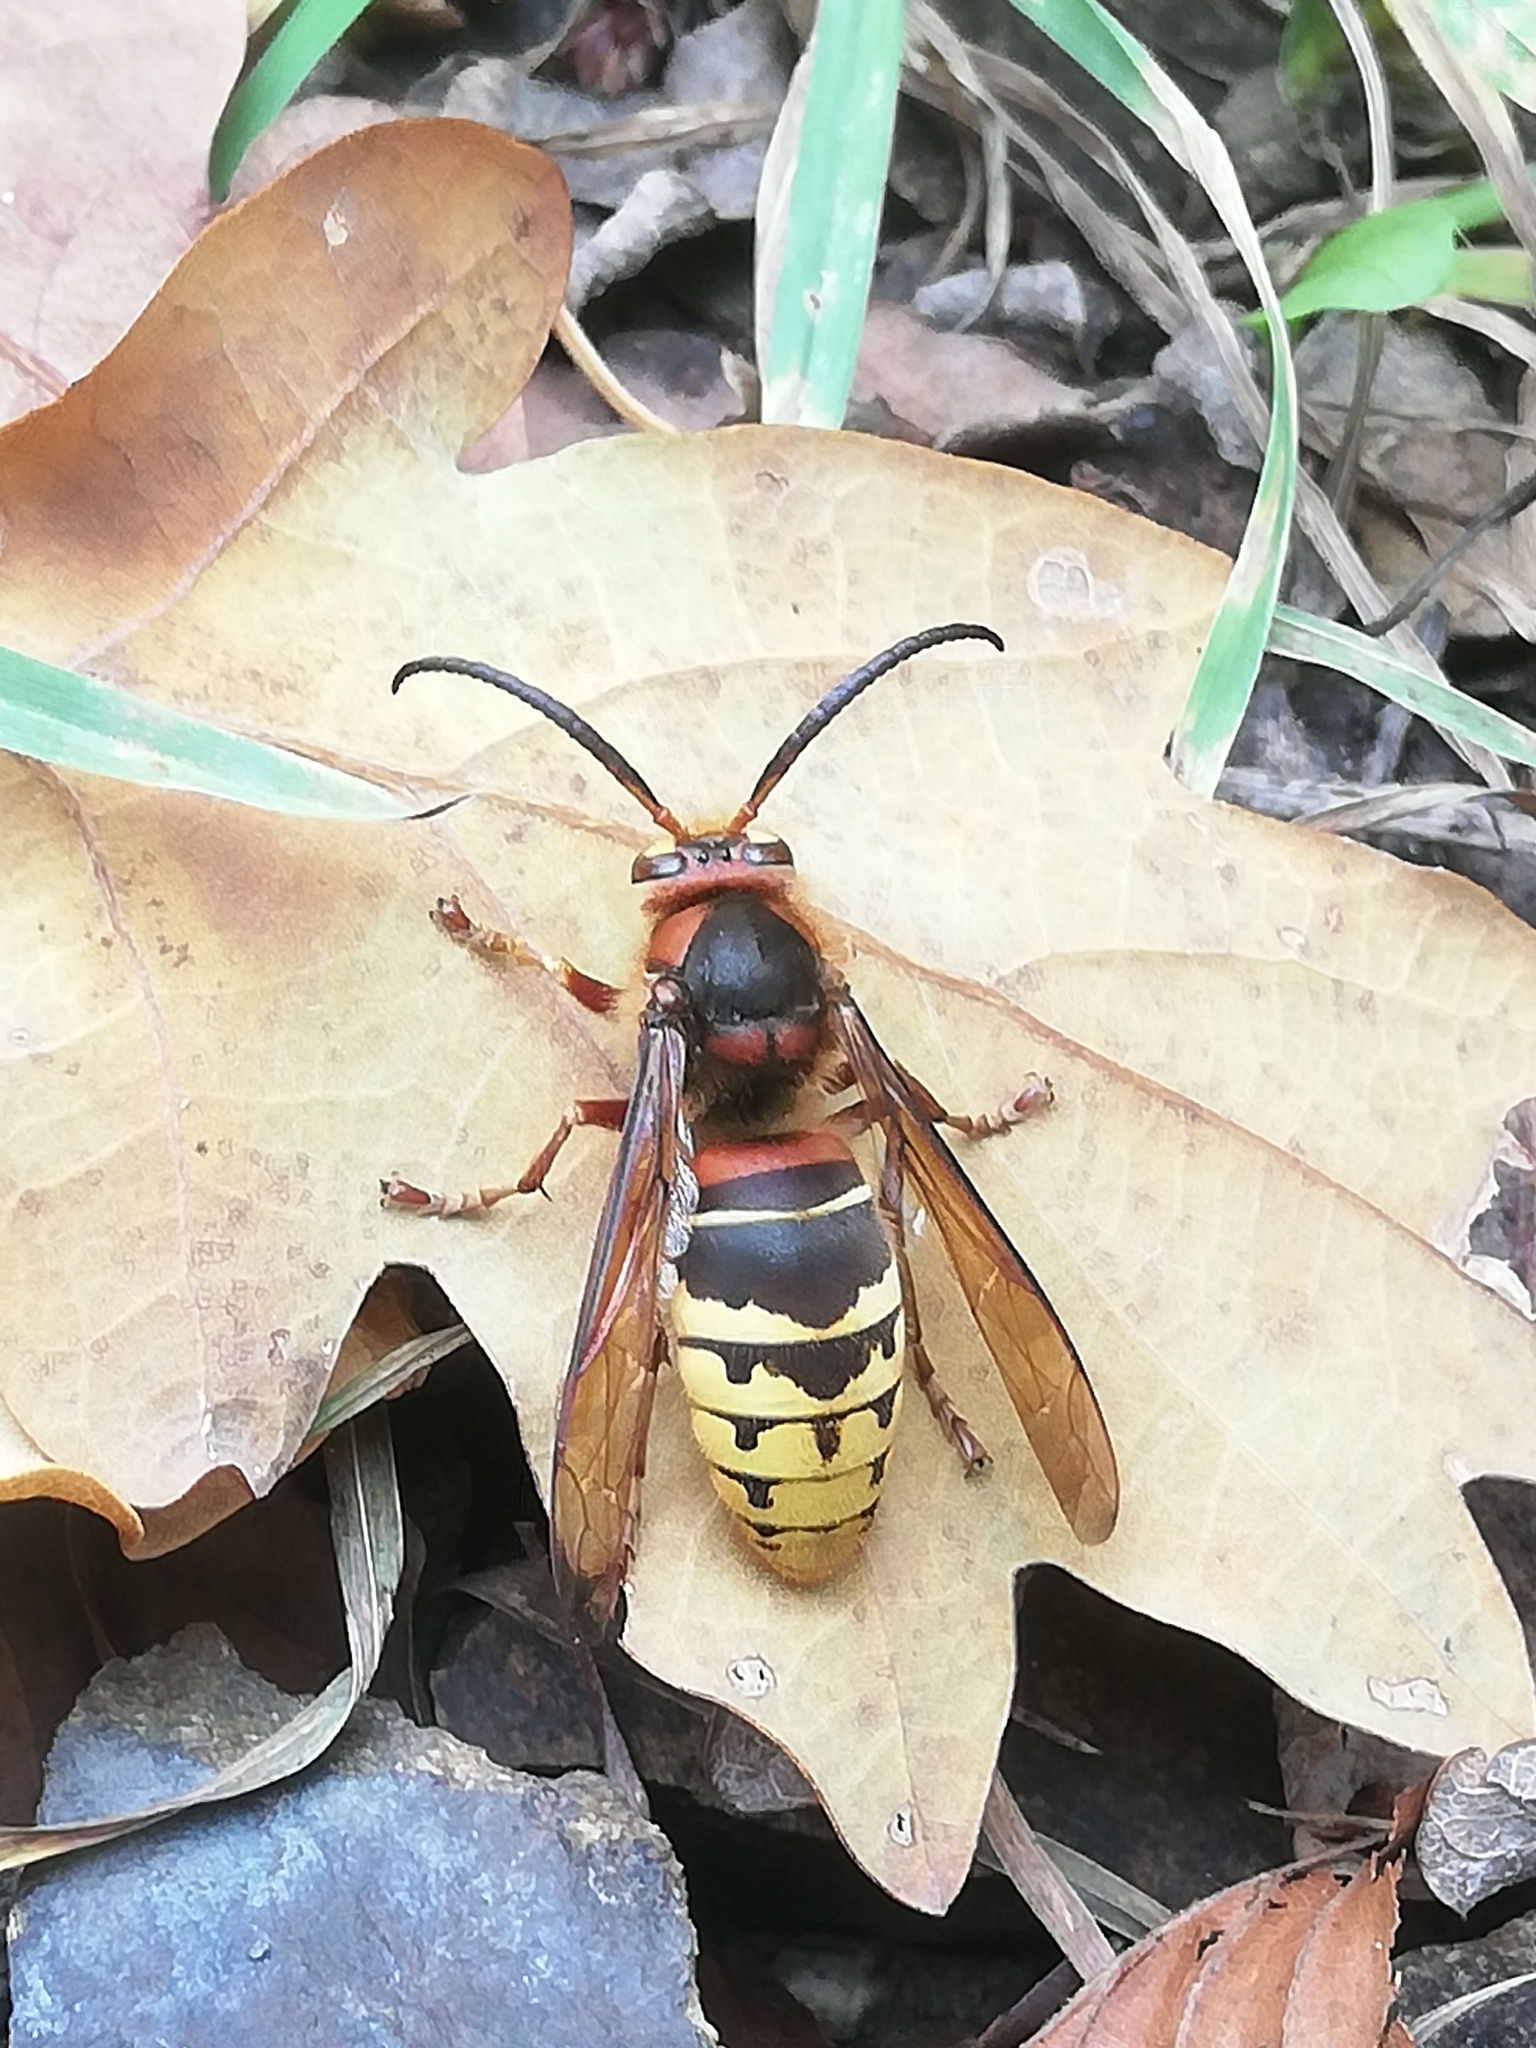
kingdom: Animalia
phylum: Arthropoda
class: Insecta
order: Hymenoptera
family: Vespidae
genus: Vespa
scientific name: Vespa crabro
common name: Hornet
